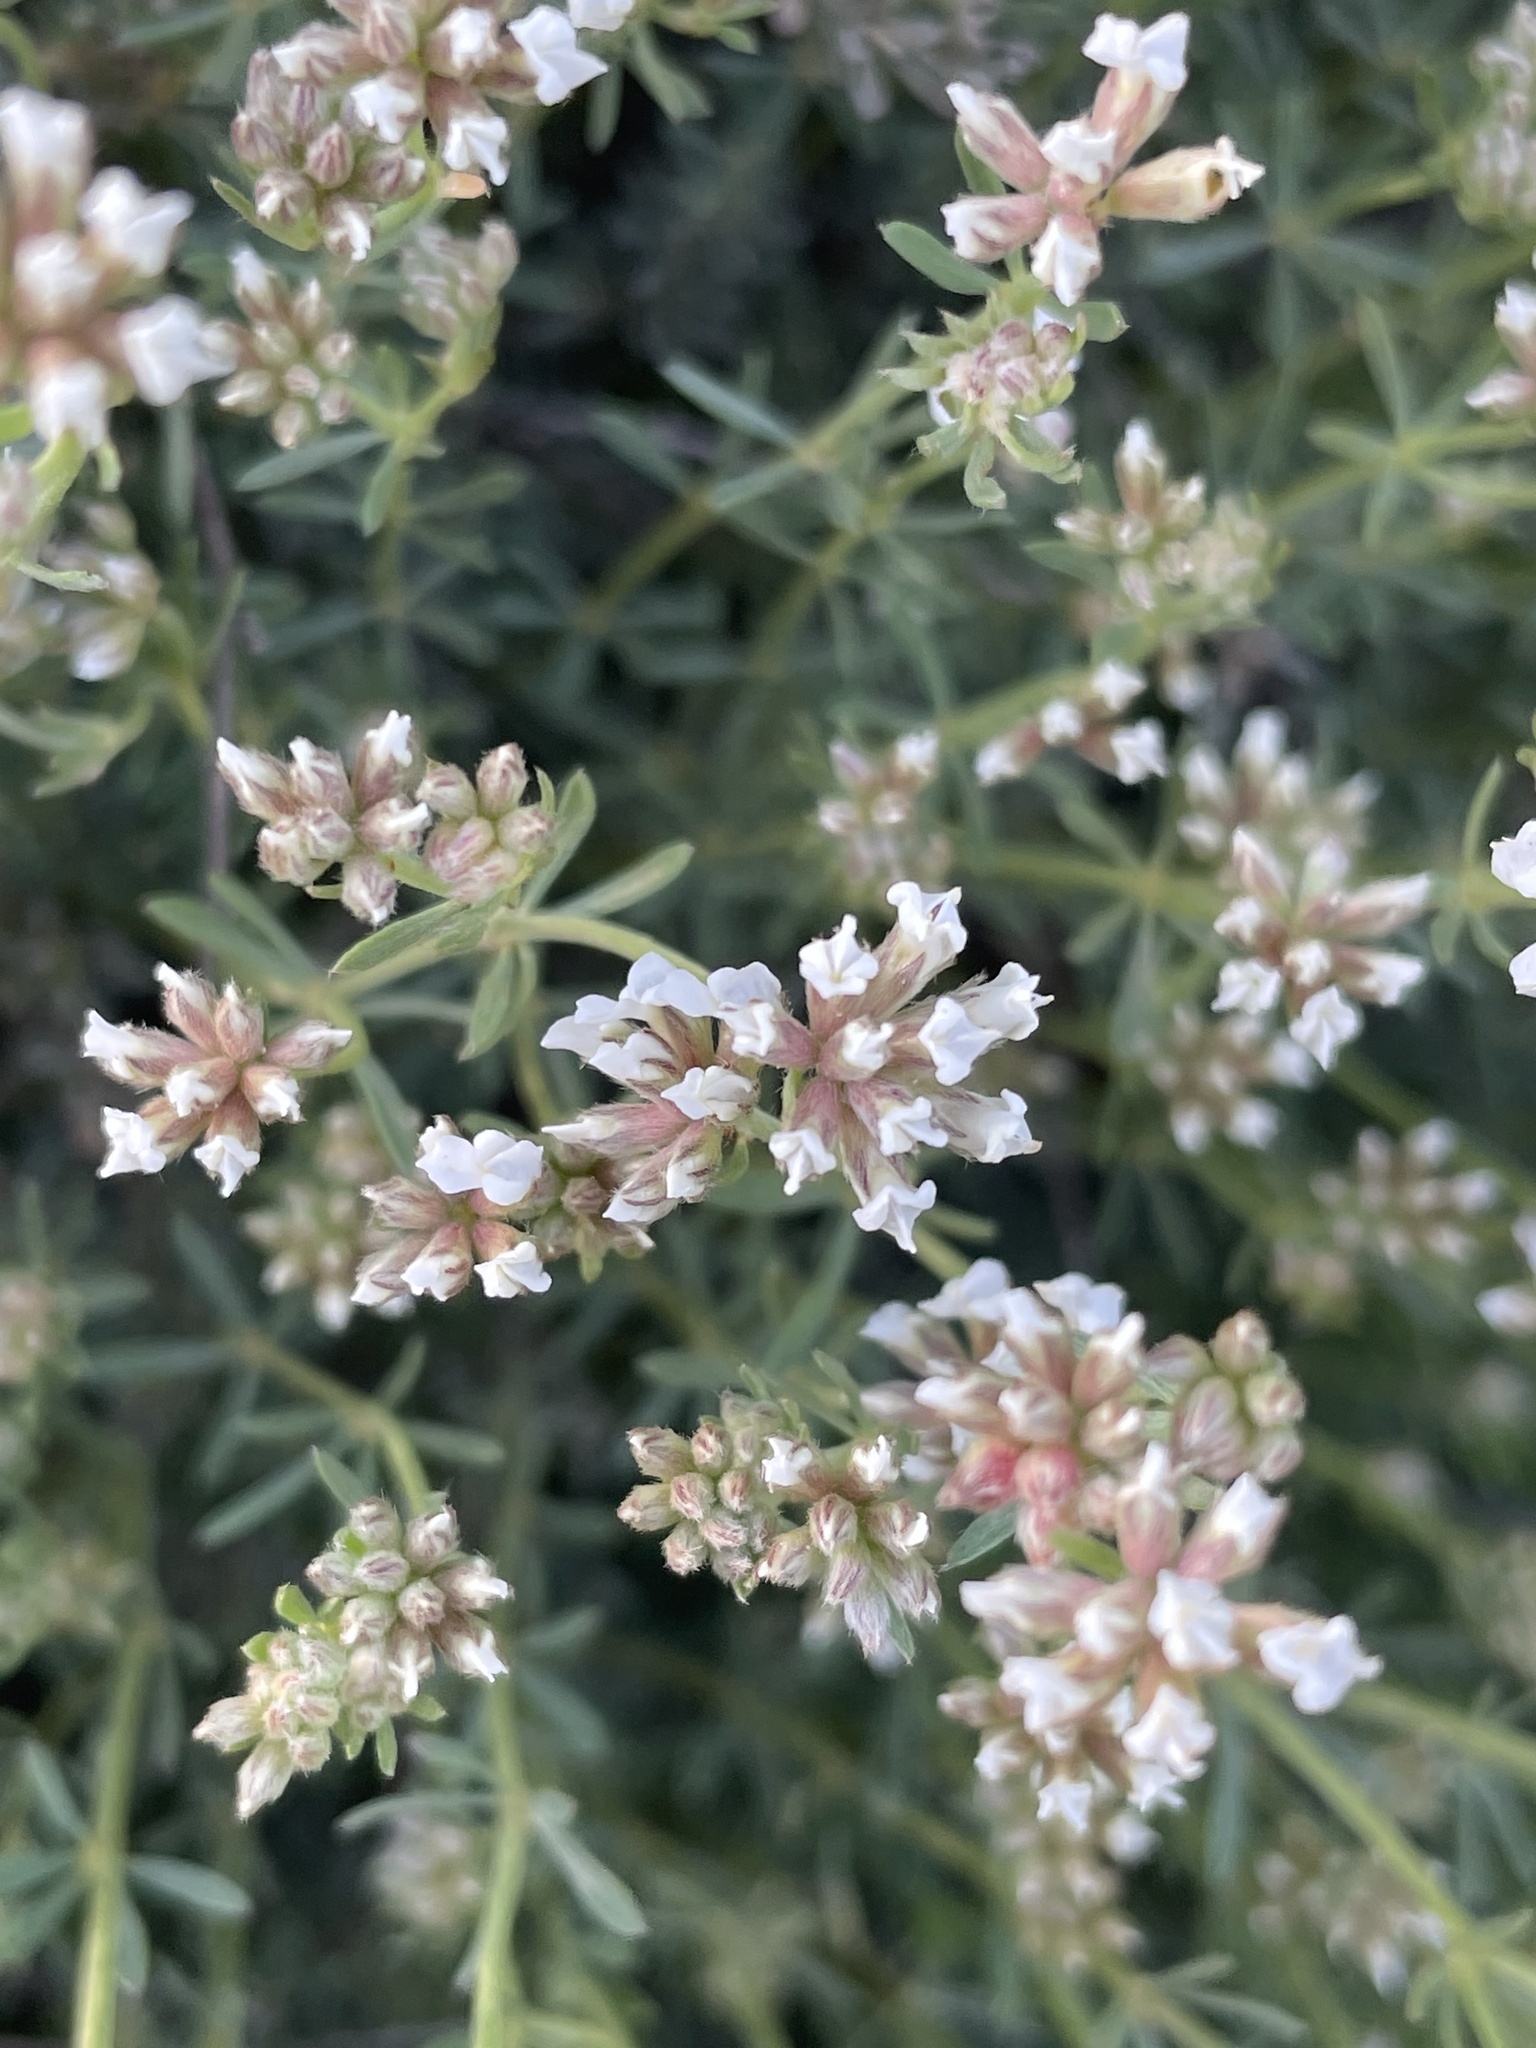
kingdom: Plantae
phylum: Tracheophyta
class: Magnoliopsida
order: Fabales
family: Fabaceae
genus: Lotus
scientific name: Lotus dorycnium
